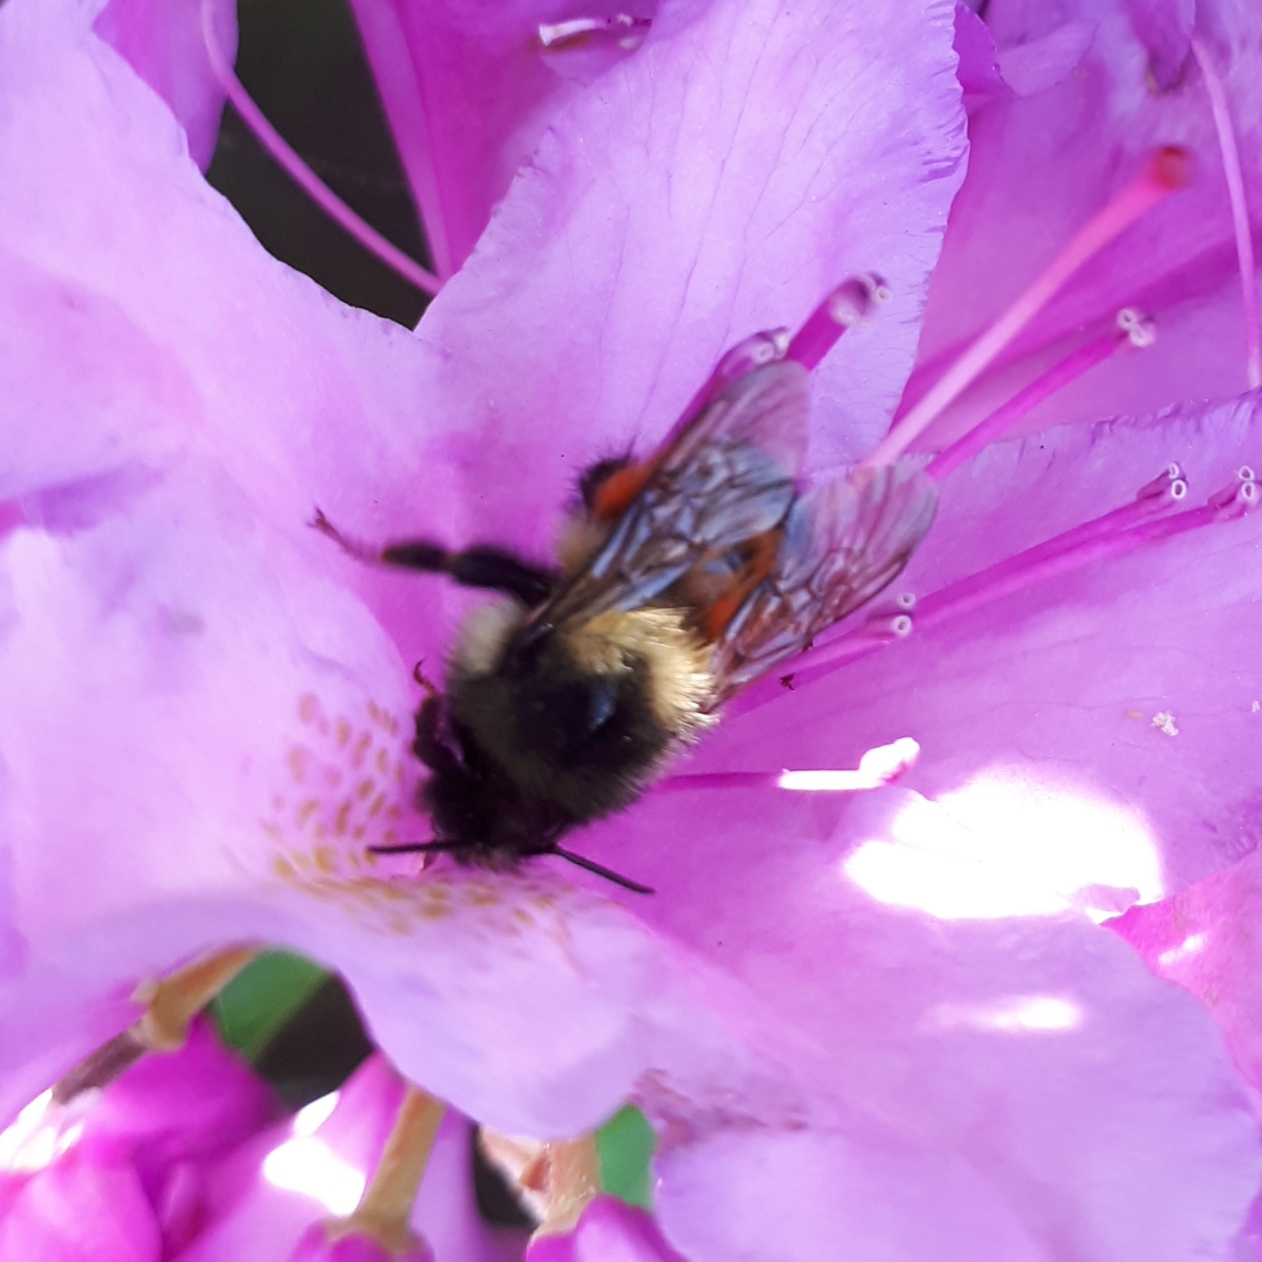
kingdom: Animalia
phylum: Arthropoda
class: Insecta
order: Hymenoptera
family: Apidae
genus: Bombus
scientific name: Bombus melanopygus
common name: Black tail bumble bee
